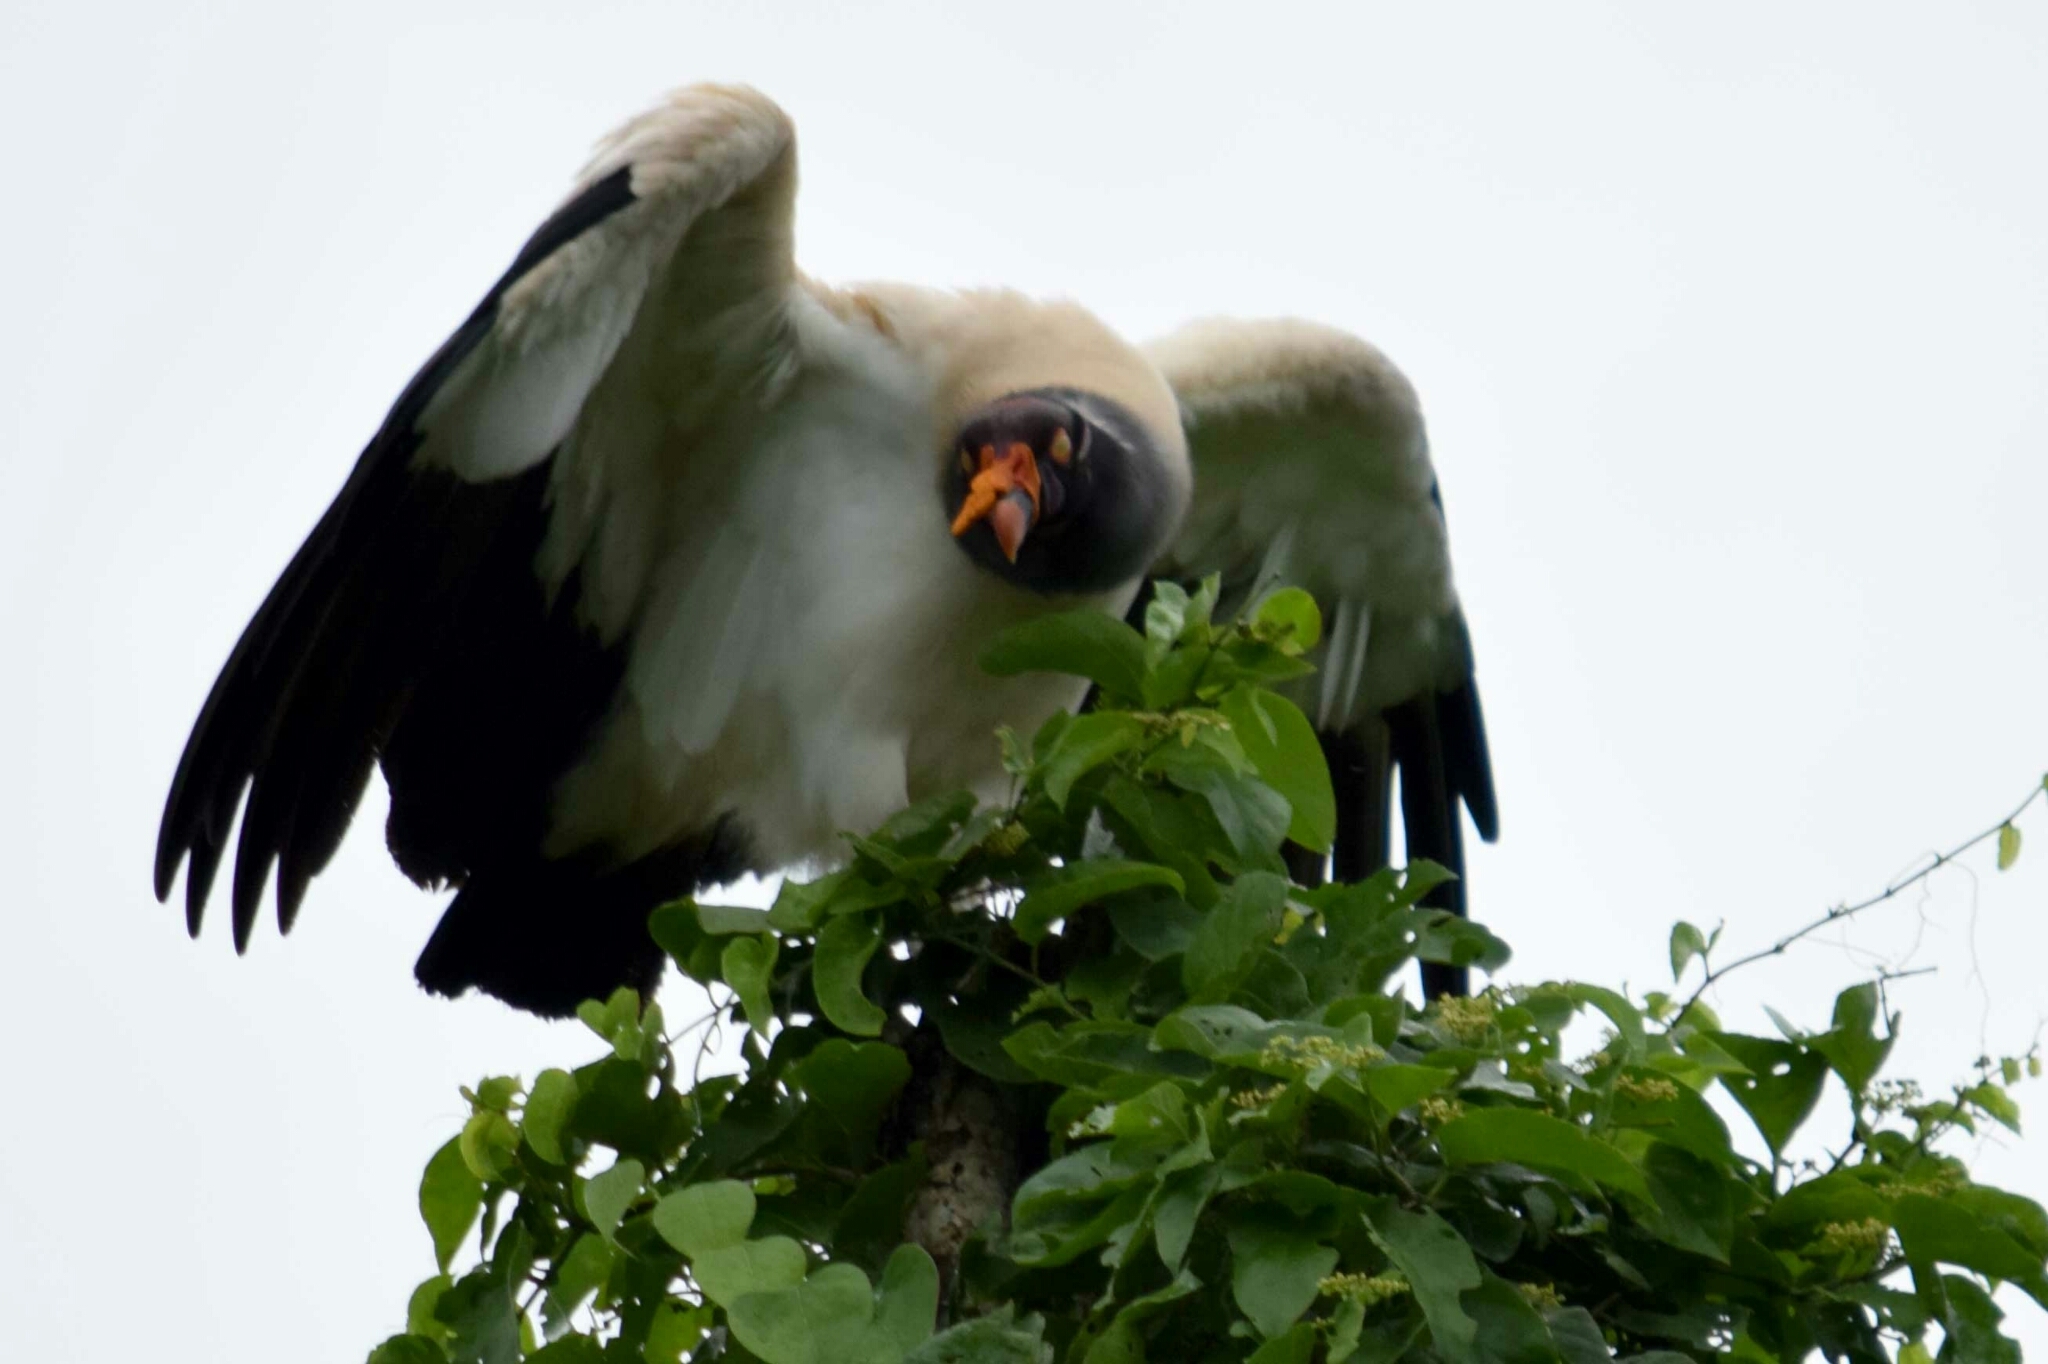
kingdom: Animalia
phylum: Chordata
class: Aves
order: Accipitriformes
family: Cathartidae
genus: Sarcoramphus
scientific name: Sarcoramphus papa
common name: King vulture
